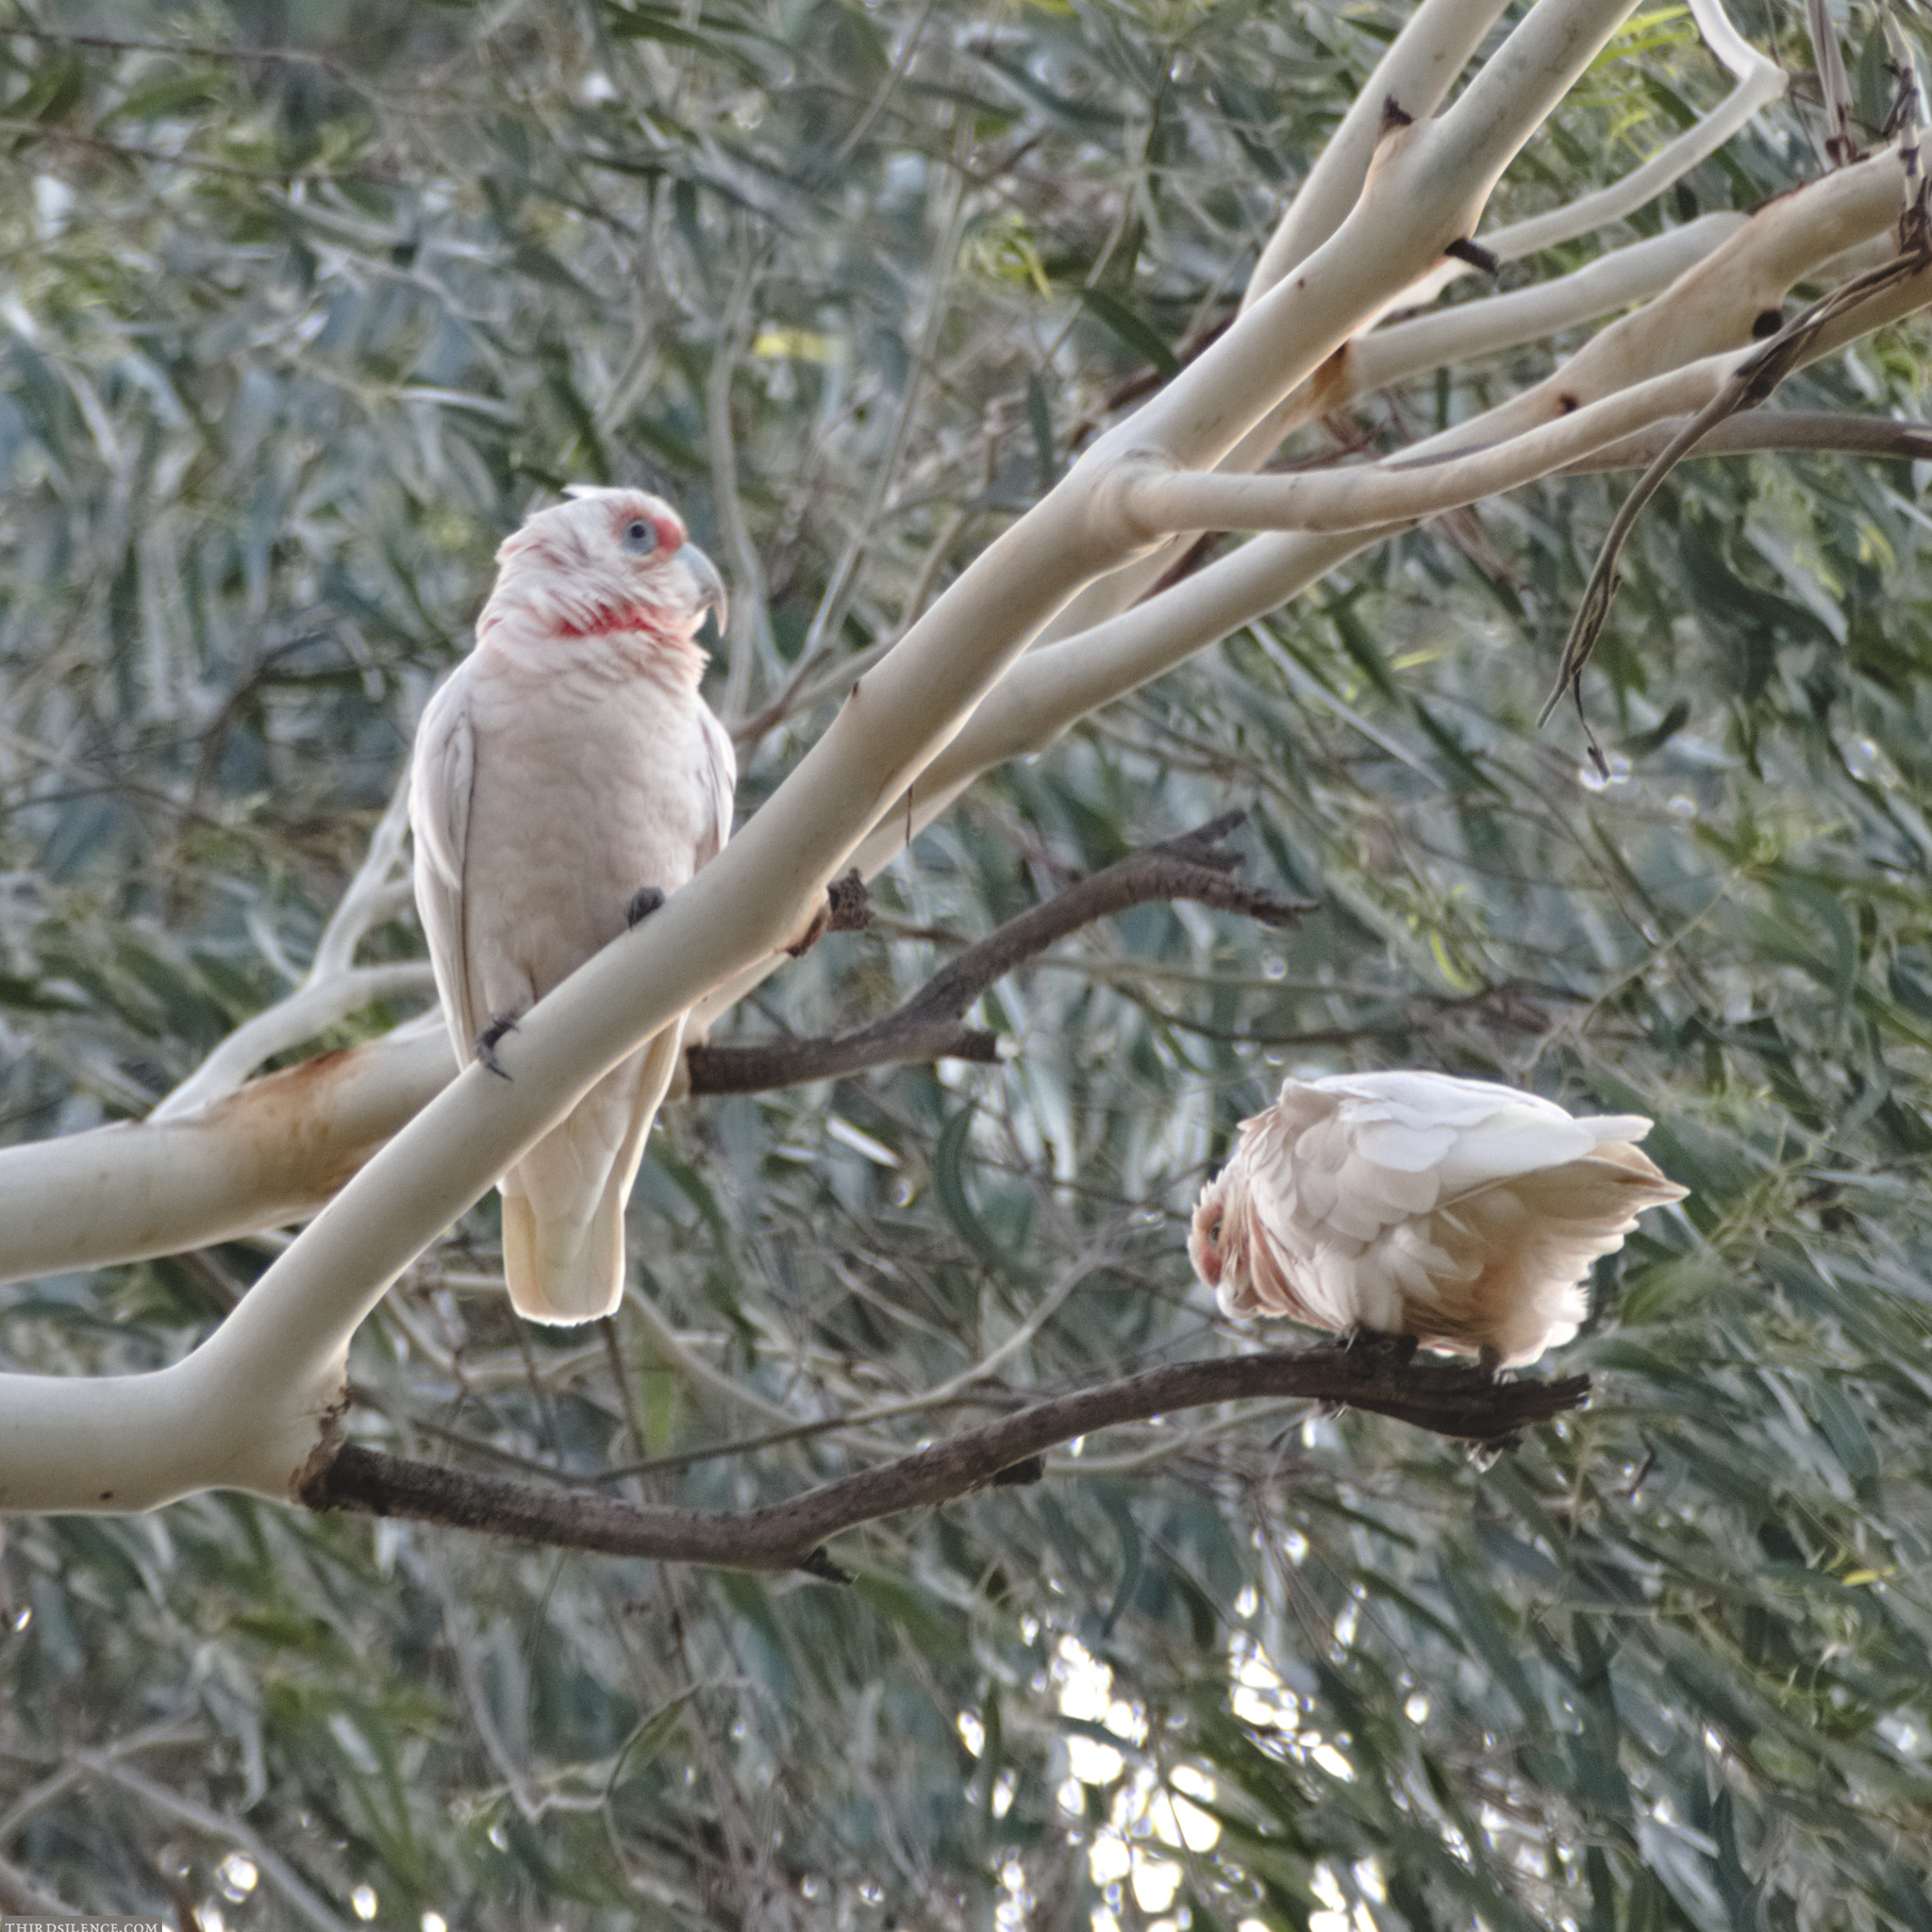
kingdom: Animalia
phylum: Chordata
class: Aves
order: Psittaciformes
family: Psittacidae
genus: Cacatua
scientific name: Cacatua tenuirostris
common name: Long-billed corella
